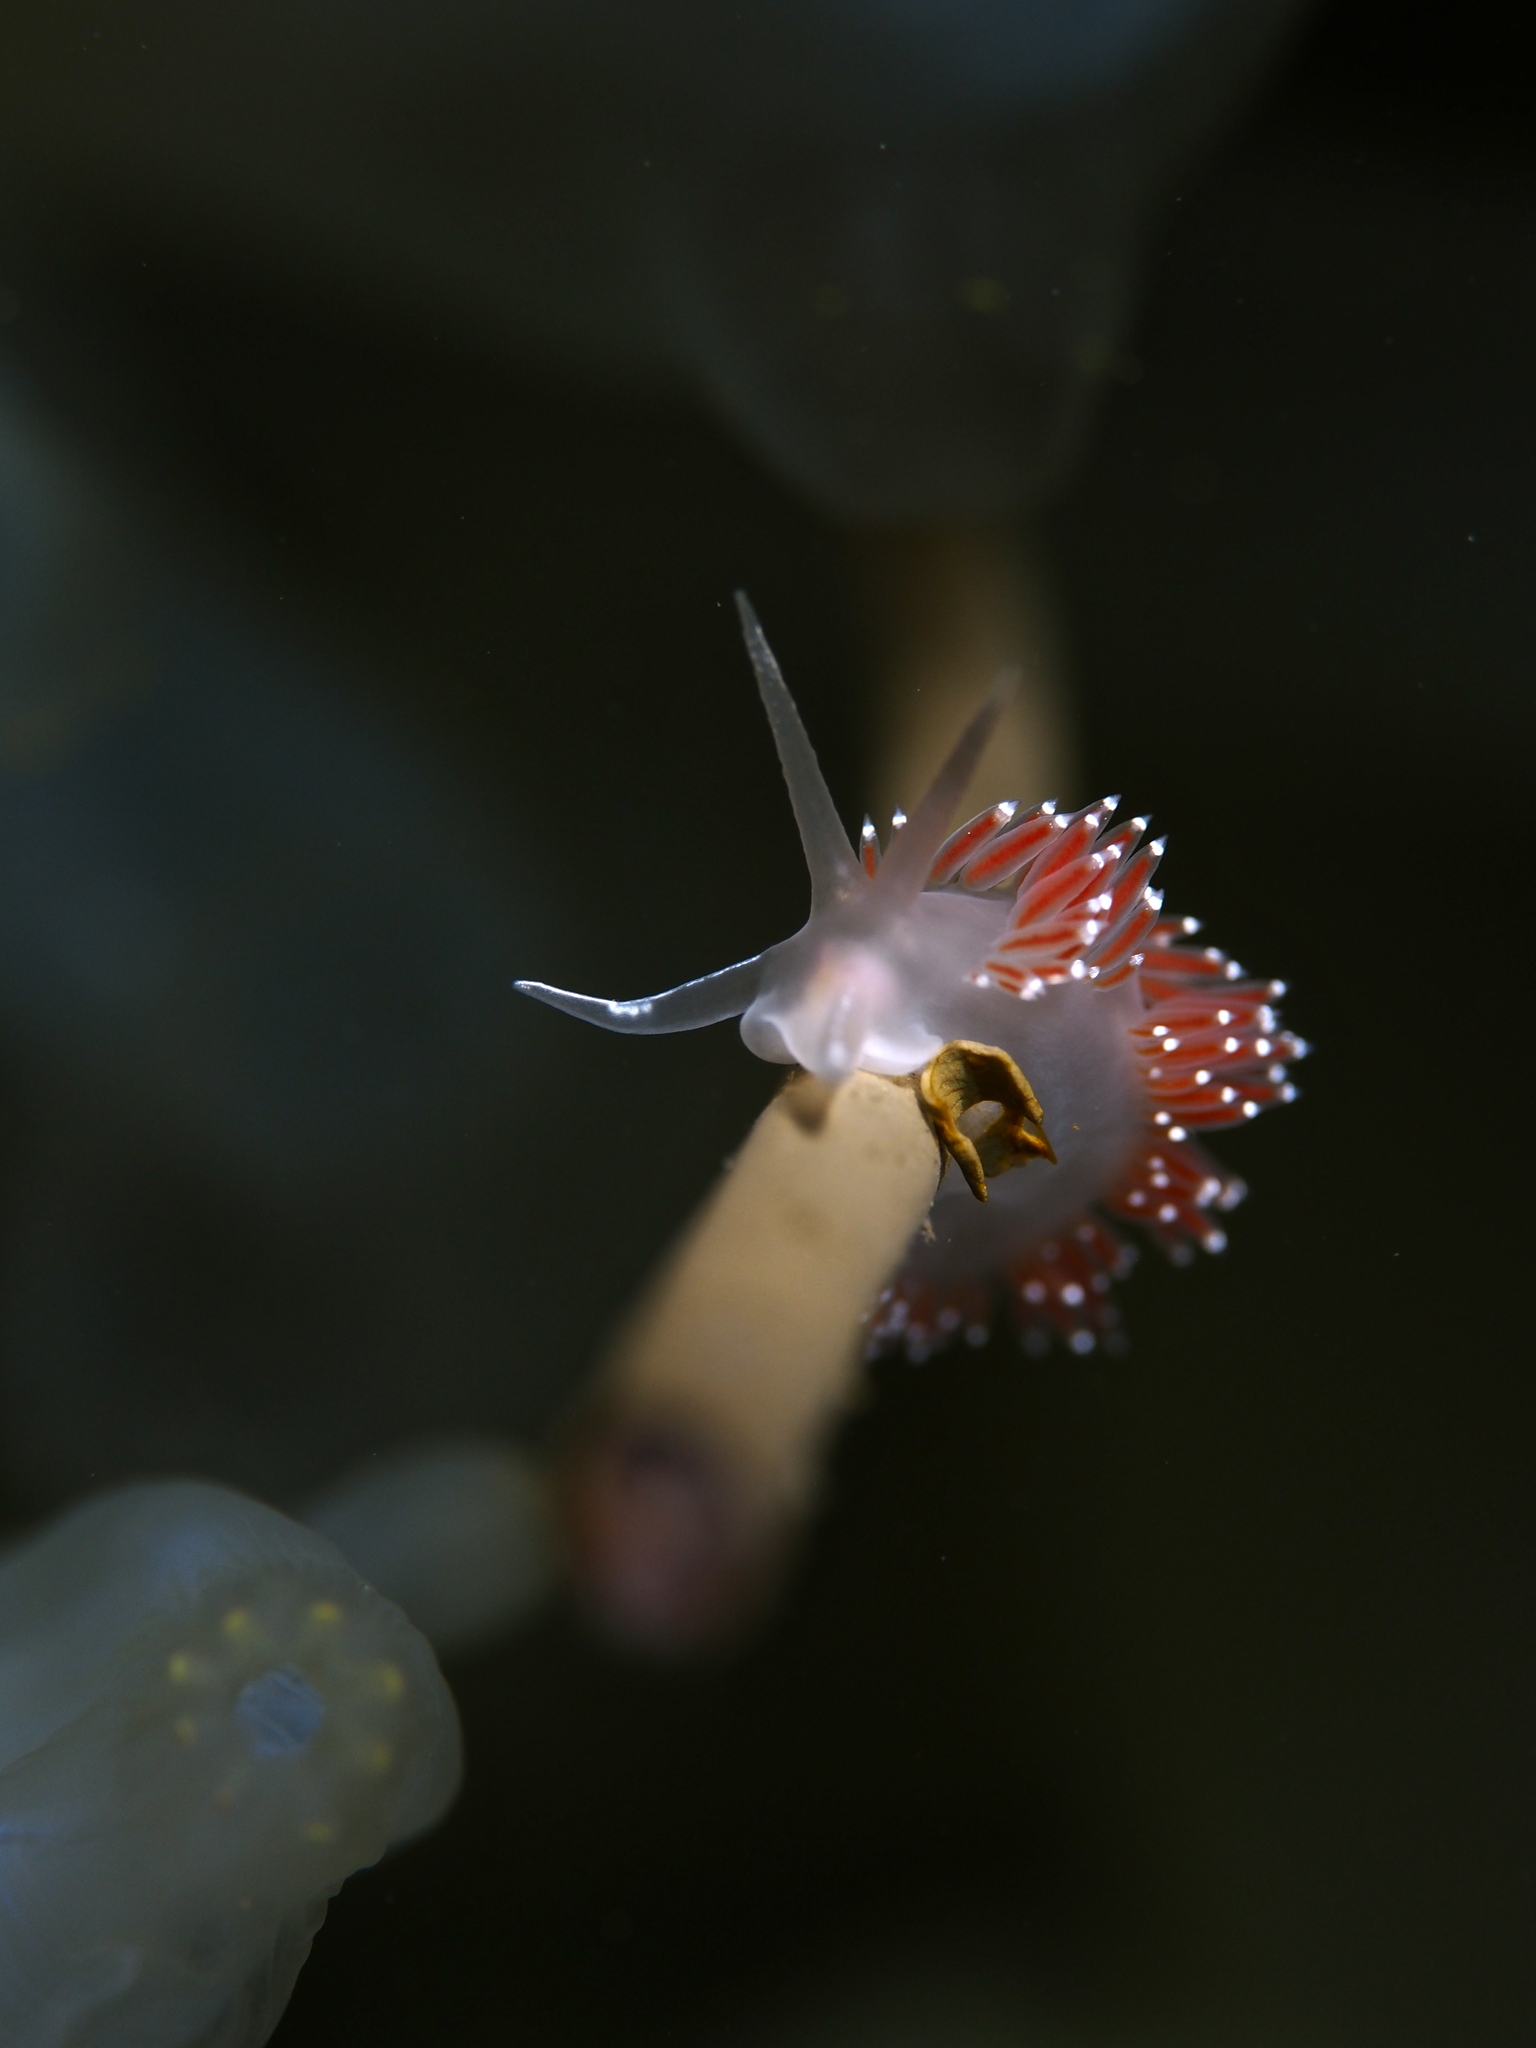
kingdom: Animalia
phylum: Mollusca
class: Gastropoda
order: Nudibranchia
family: Coryphellidae
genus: Coryphella
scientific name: Coryphella verrucosa
